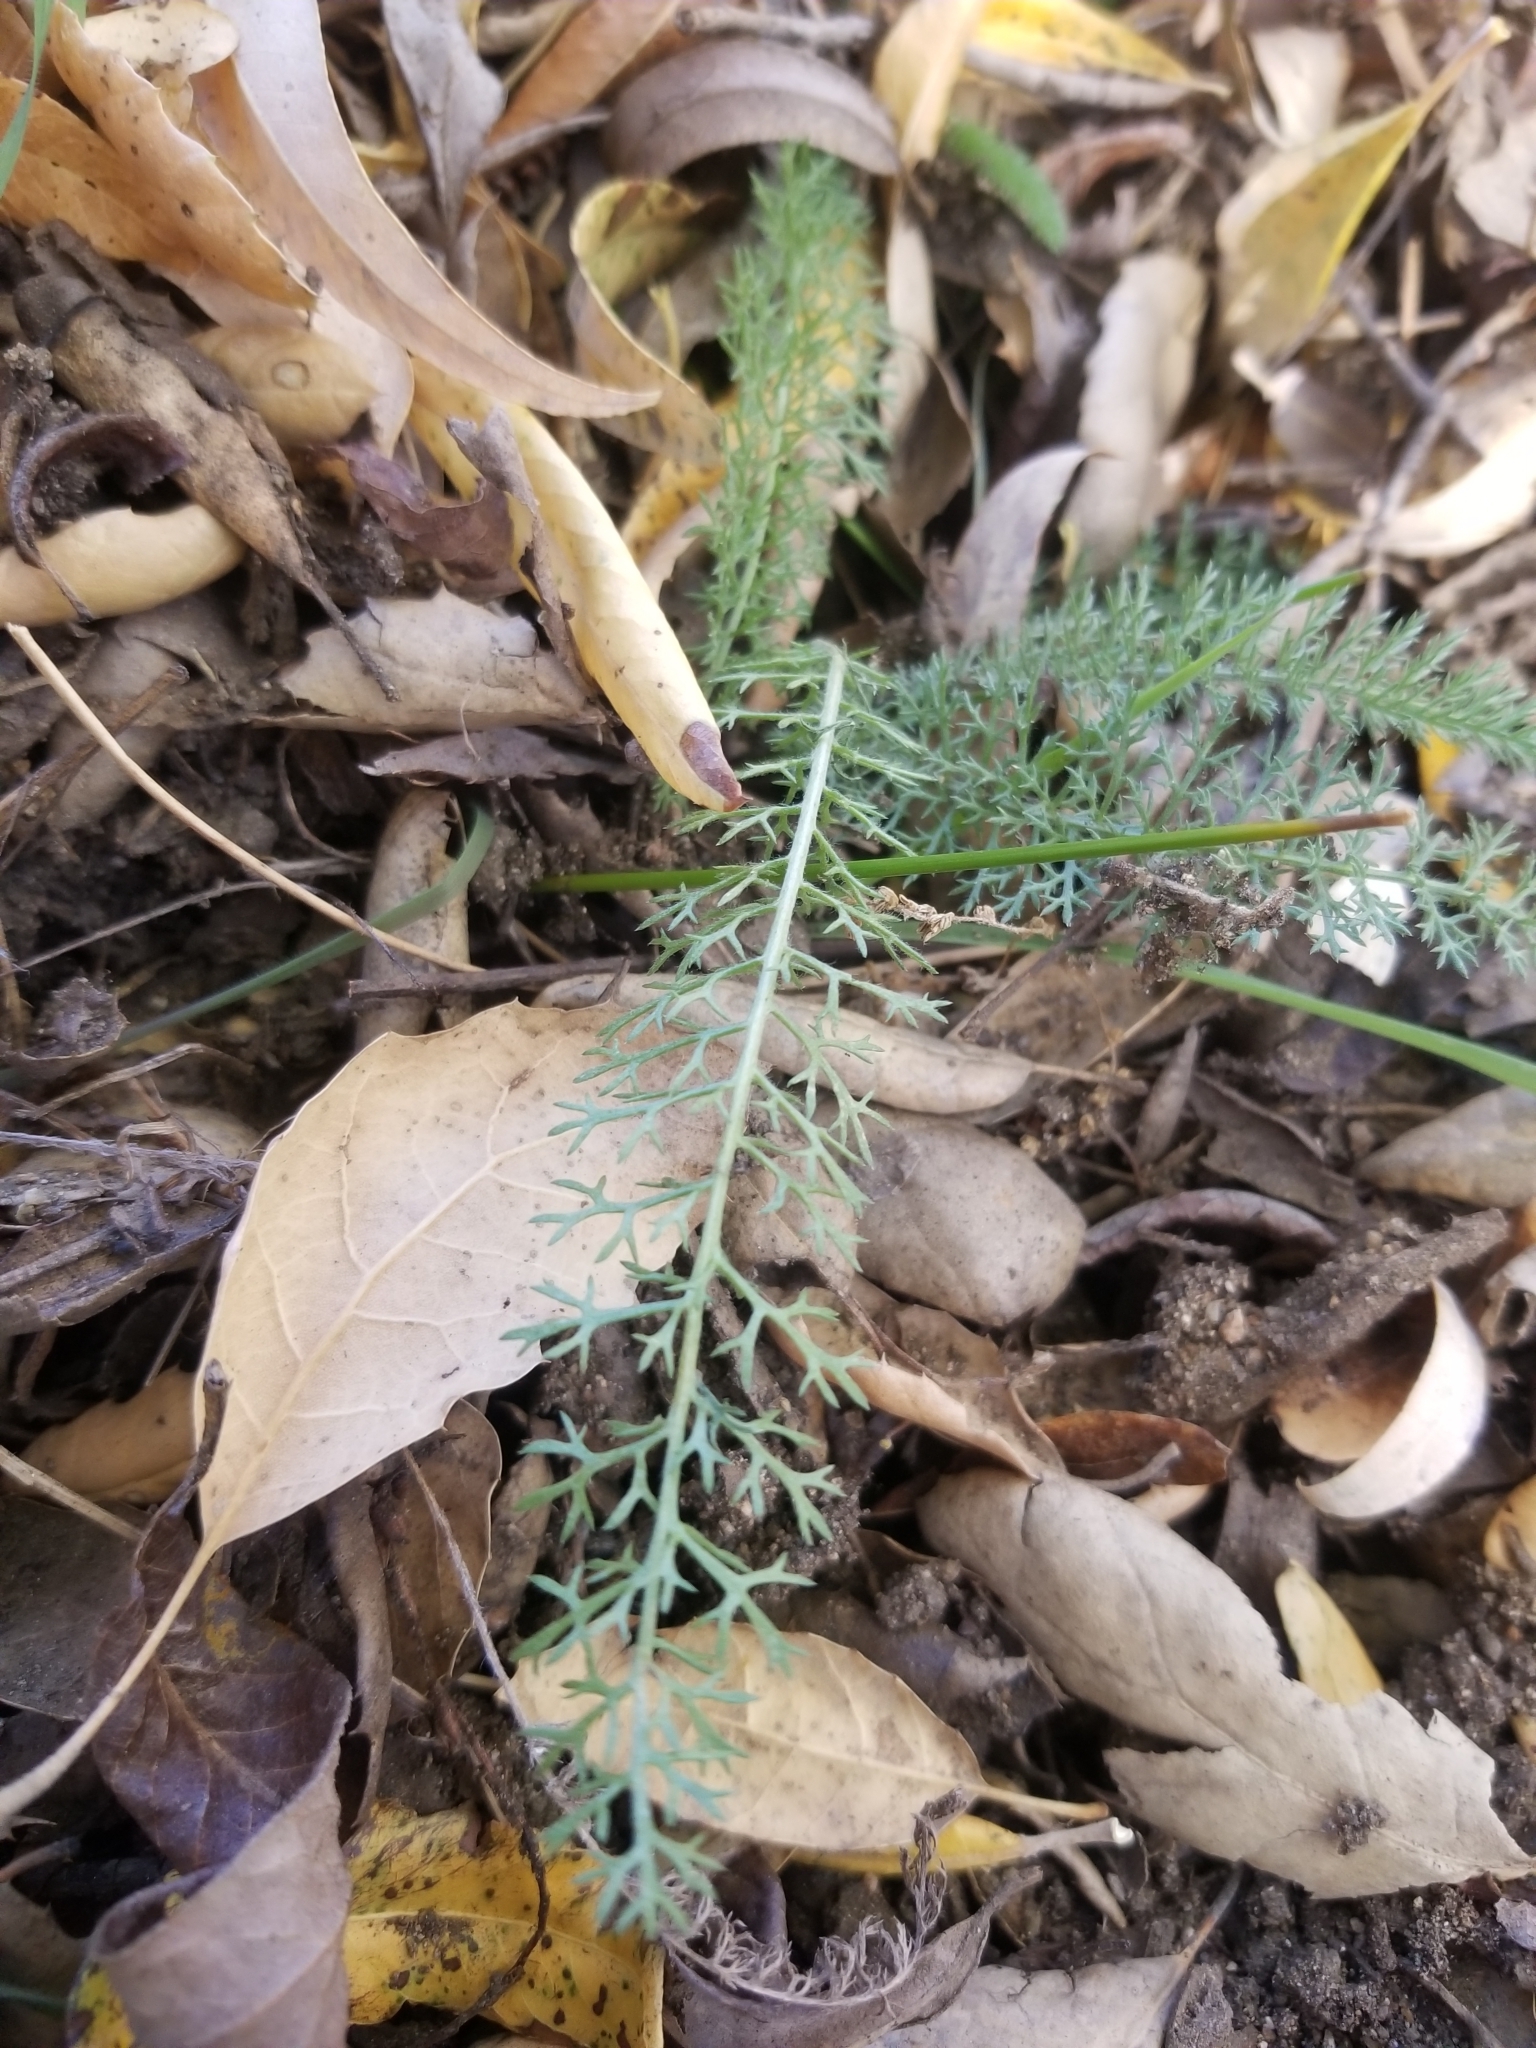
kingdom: Plantae
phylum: Tracheophyta
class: Magnoliopsida
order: Asterales
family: Asteraceae
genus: Achillea
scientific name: Achillea millefolium
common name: Yarrow
